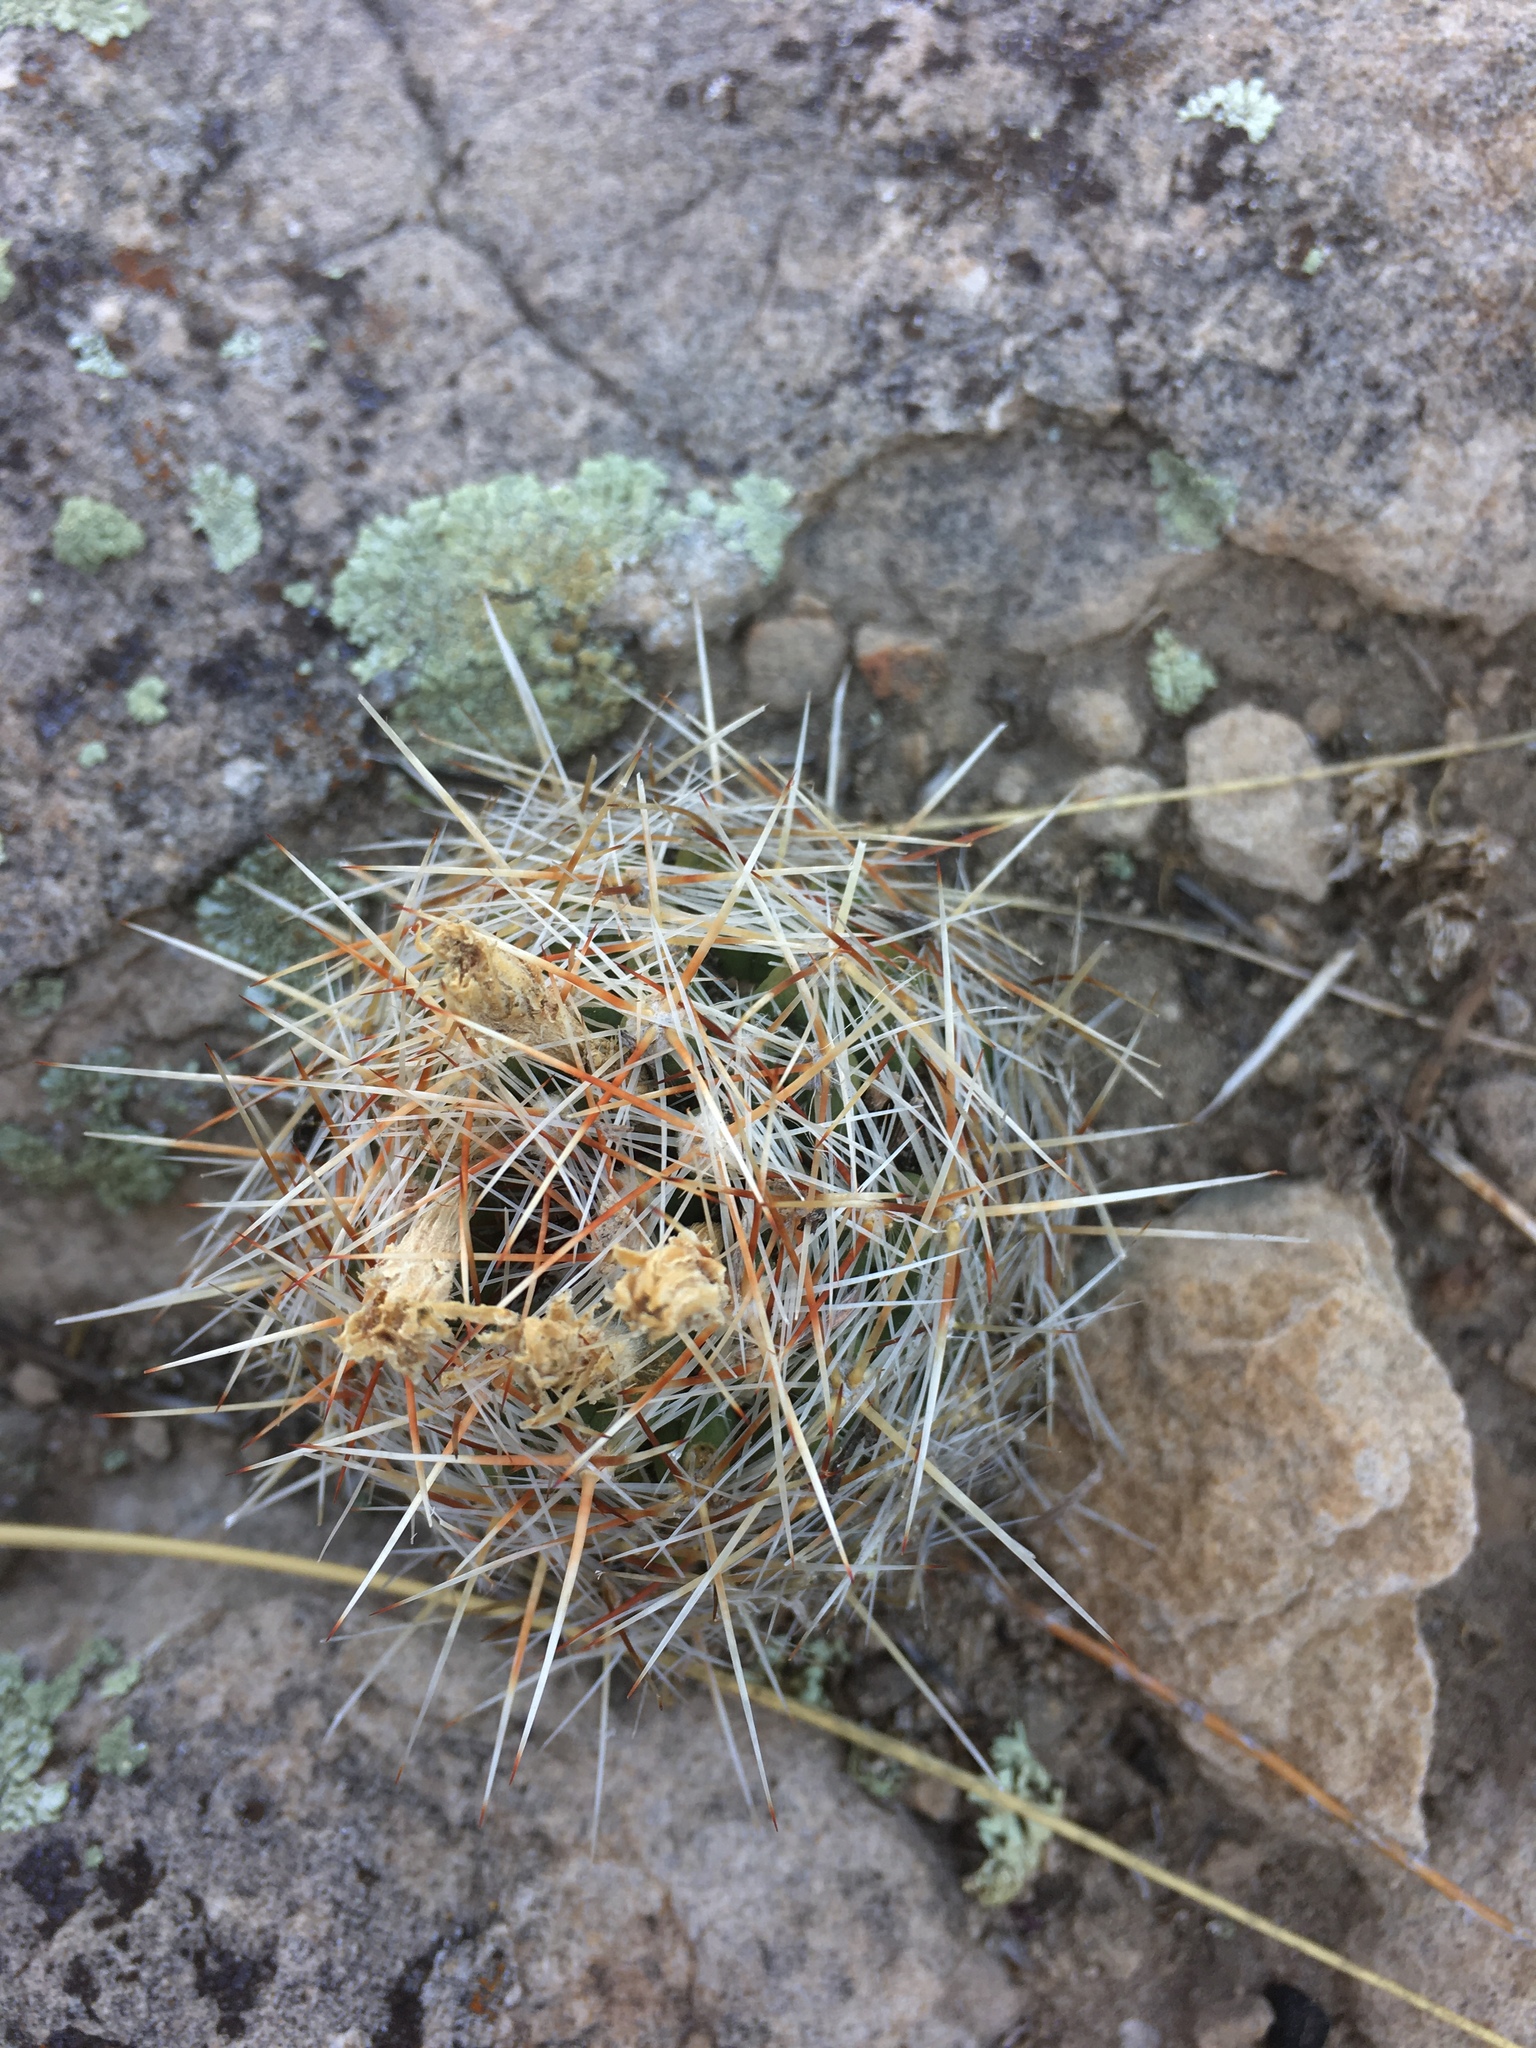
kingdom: Plantae
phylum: Tracheophyta
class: Magnoliopsida
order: Caryophyllales
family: Cactaceae
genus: Pelecyphora
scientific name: Pelecyphora vivipara
